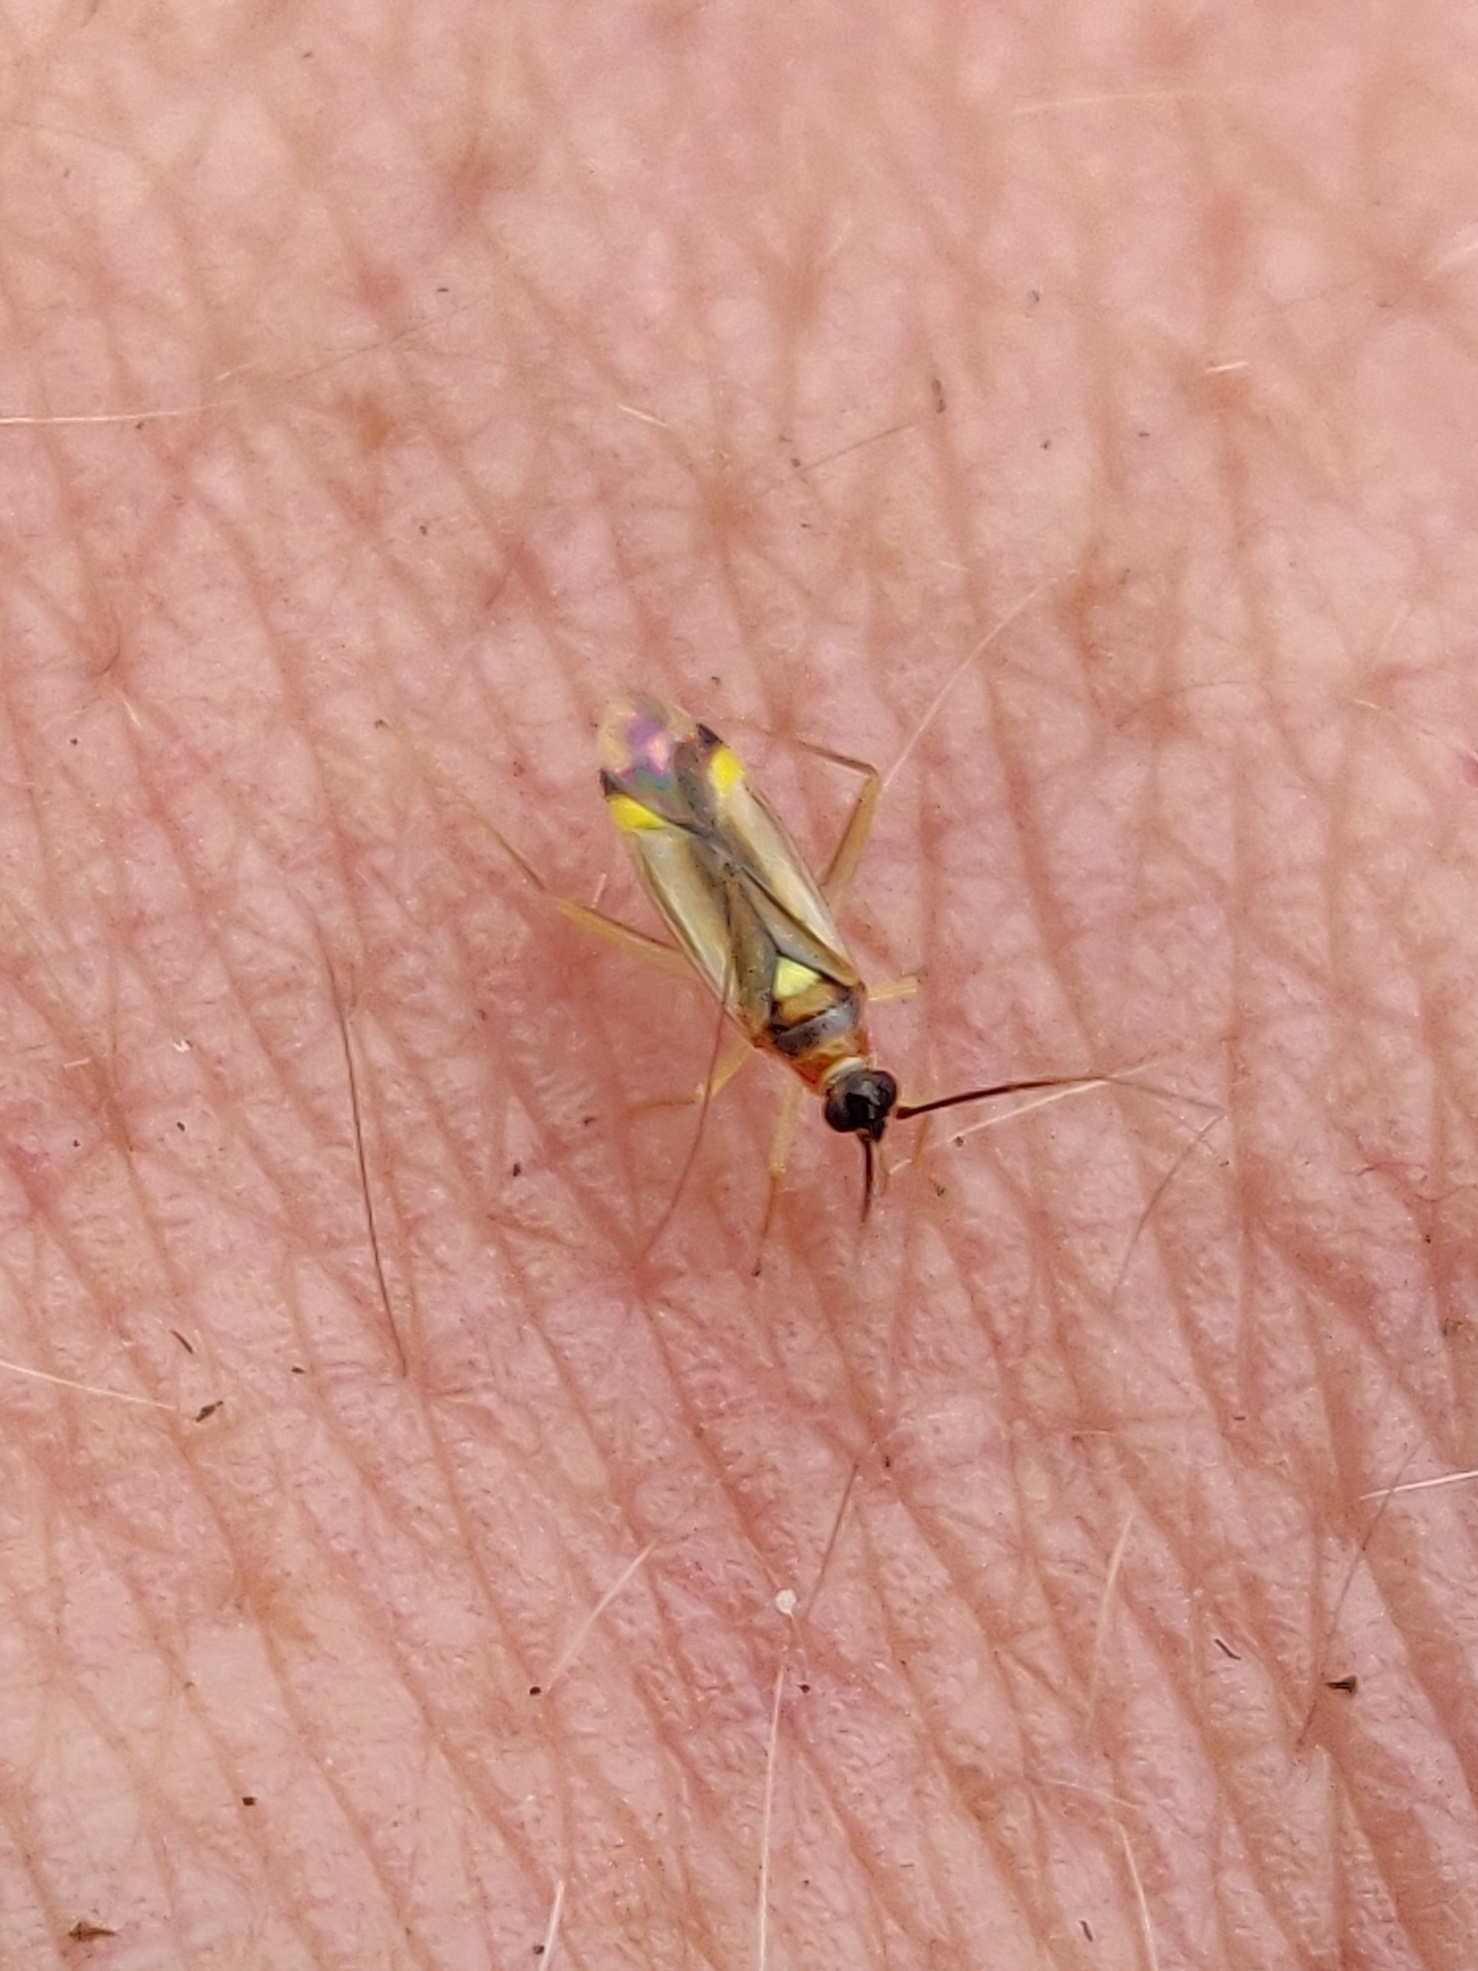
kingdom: Animalia
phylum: Arthropoda
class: Insecta
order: Hemiptera
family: Miridae
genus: Campyloneura
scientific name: Campyloneura virgula
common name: Predatory bug
